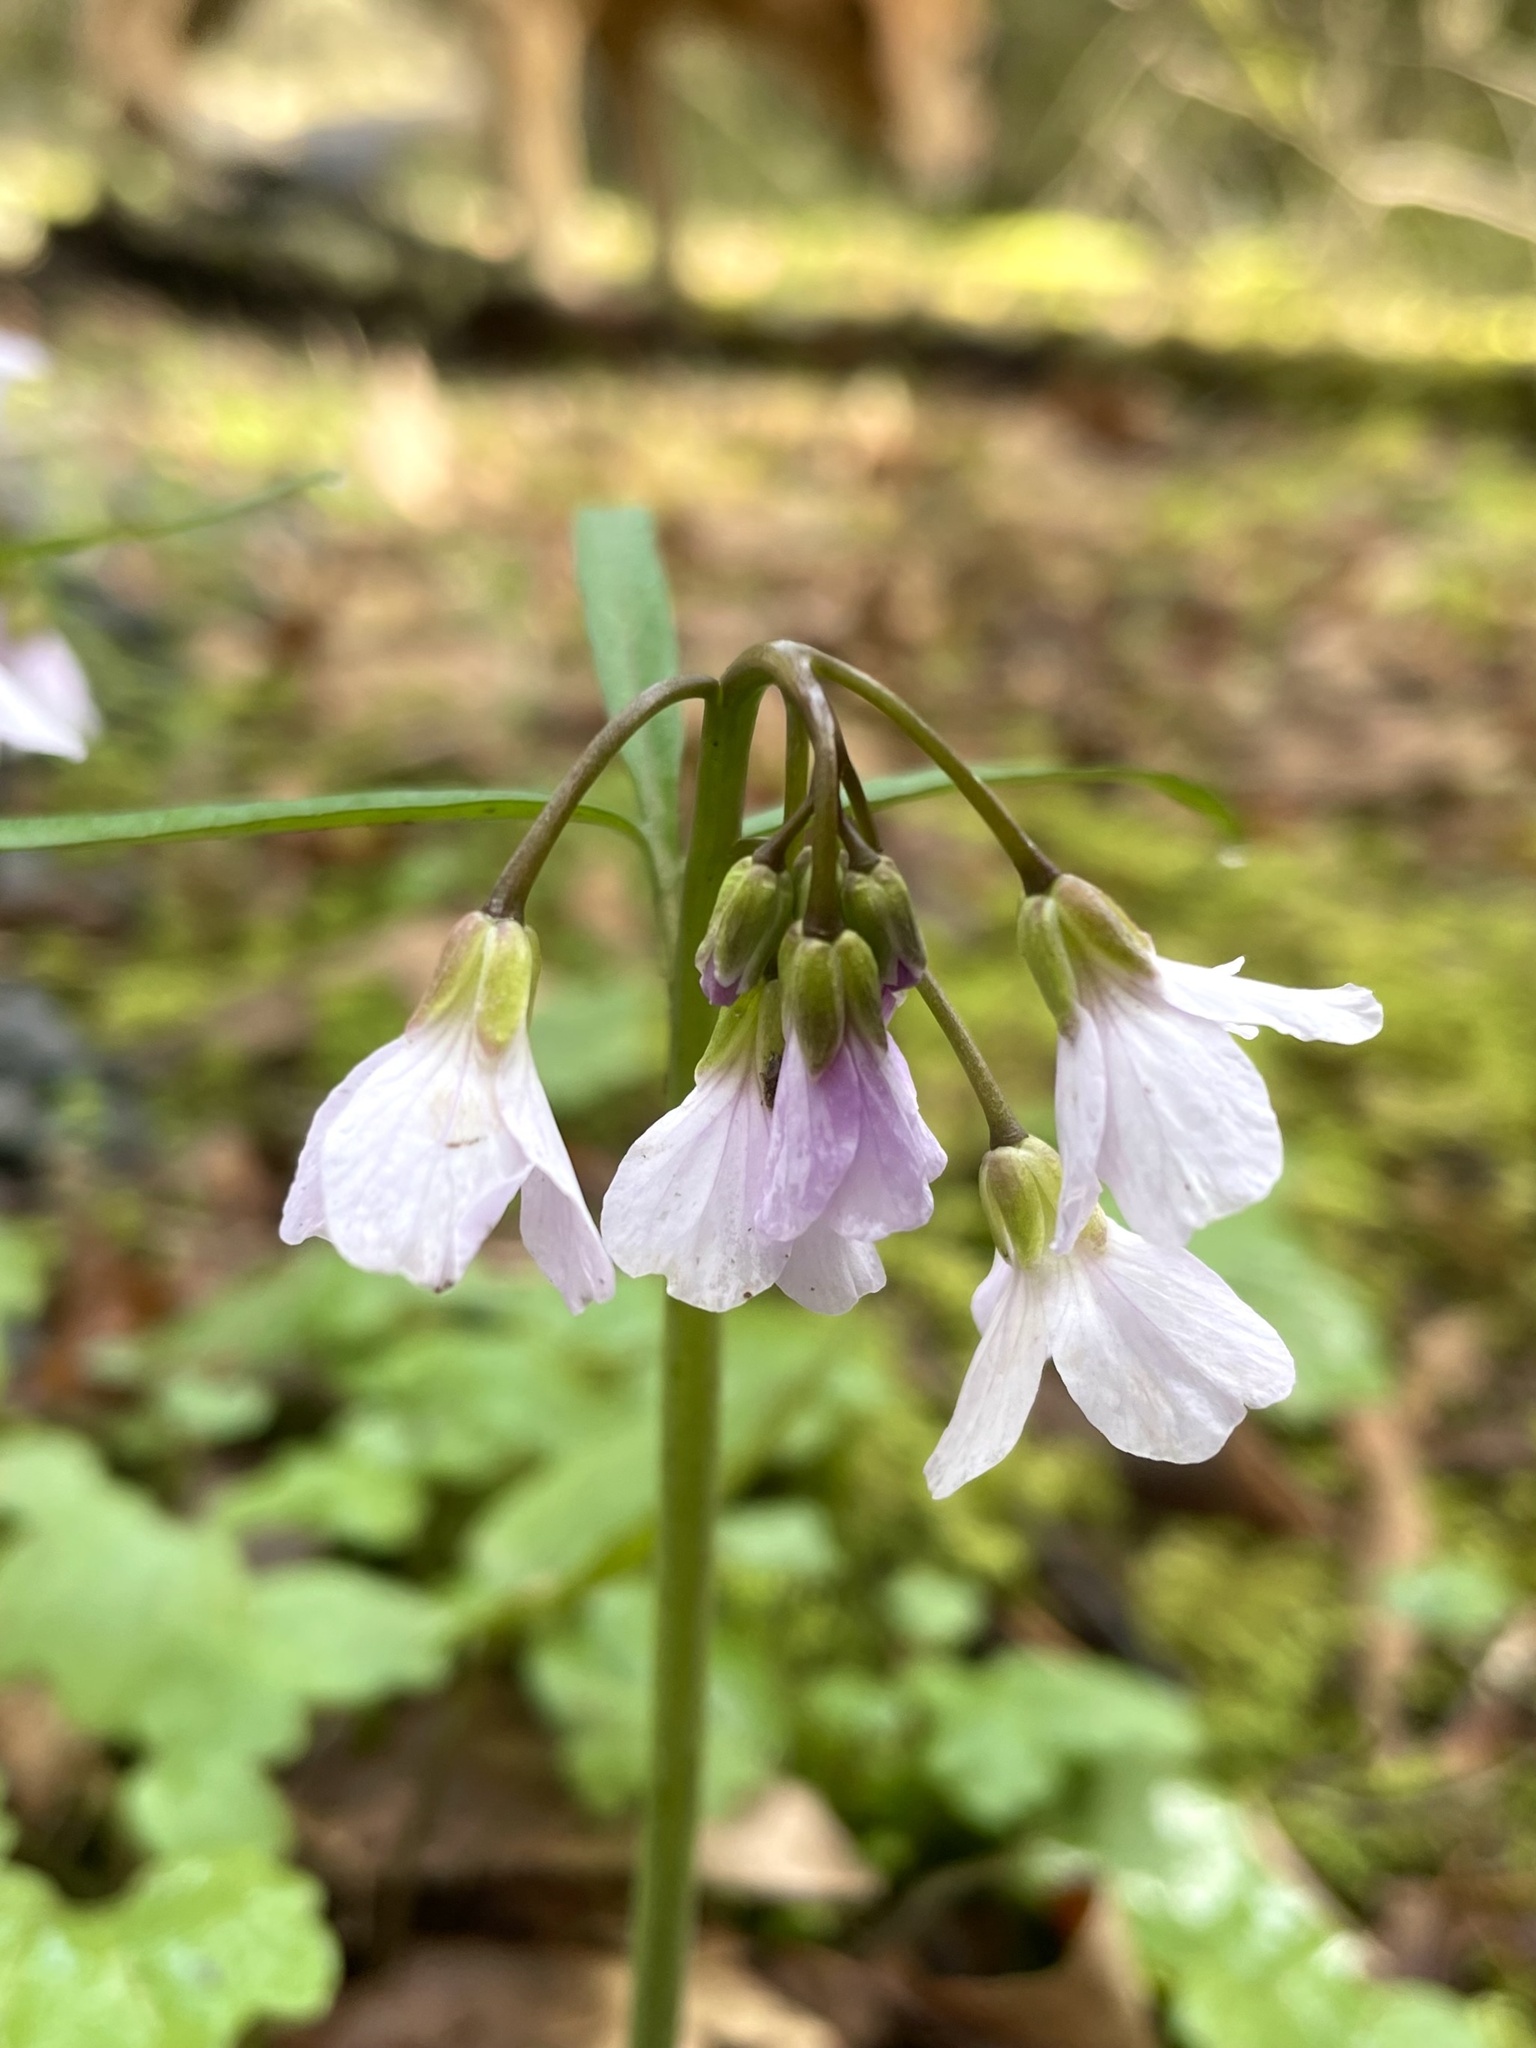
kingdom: Plantae
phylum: Tracheophyta
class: Magnoliopsida
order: Brassicales
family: Brassicaceae
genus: Cardamine
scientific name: Cardamine nuttallii
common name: Nuttall's toothwort
